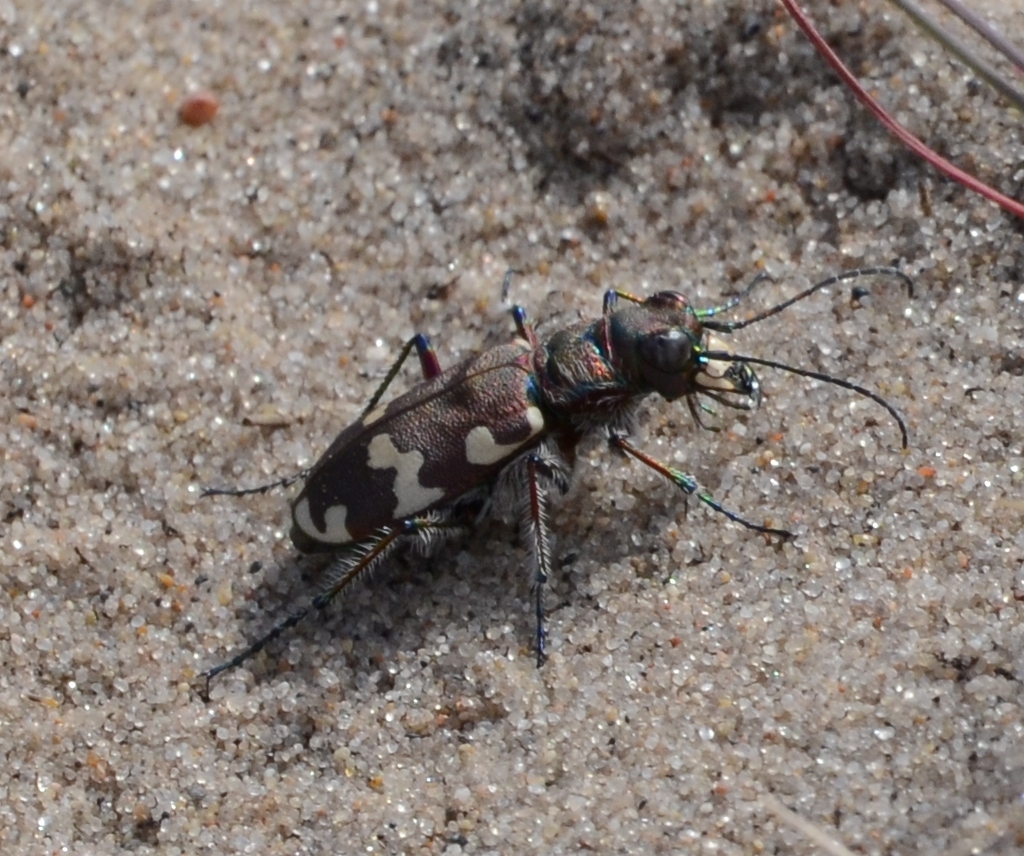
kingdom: Animalia
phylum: Arthropoda
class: Insecta
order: Coleoptera
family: Carabidae
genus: Cicindela
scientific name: Cicindela hybrida
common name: Northern dune tiger beetle
